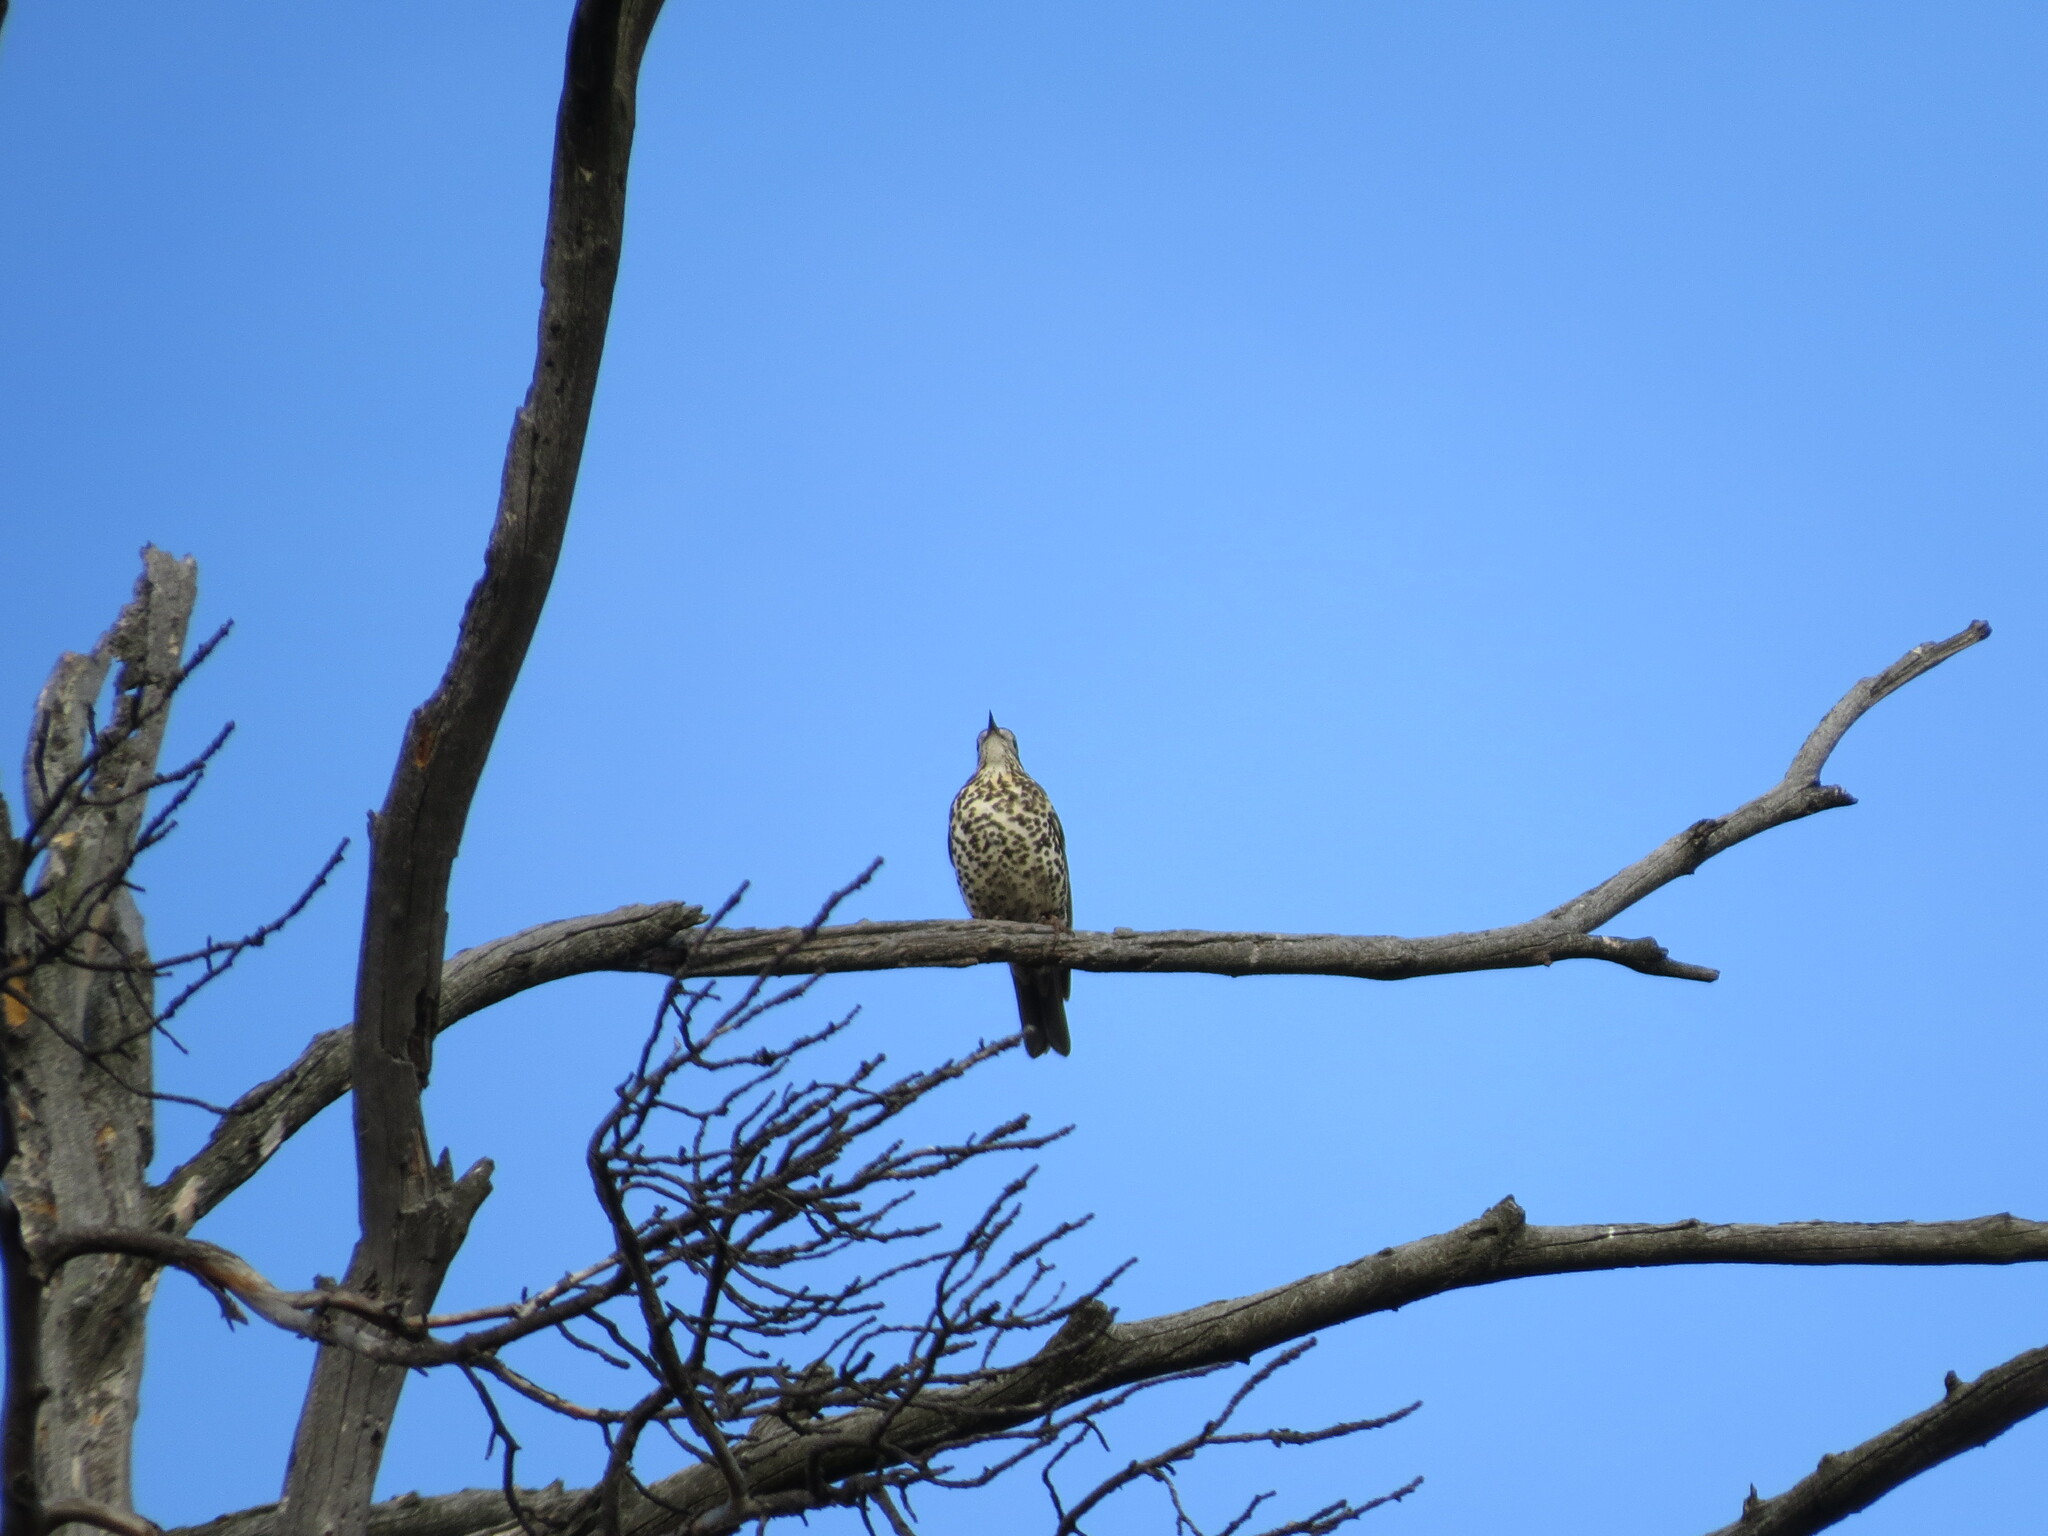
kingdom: Animalia
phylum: Chordata
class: Aves
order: Passeriformes
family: Turdidae
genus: Turdus
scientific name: Turdus viscivorus
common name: Mistle thrush
